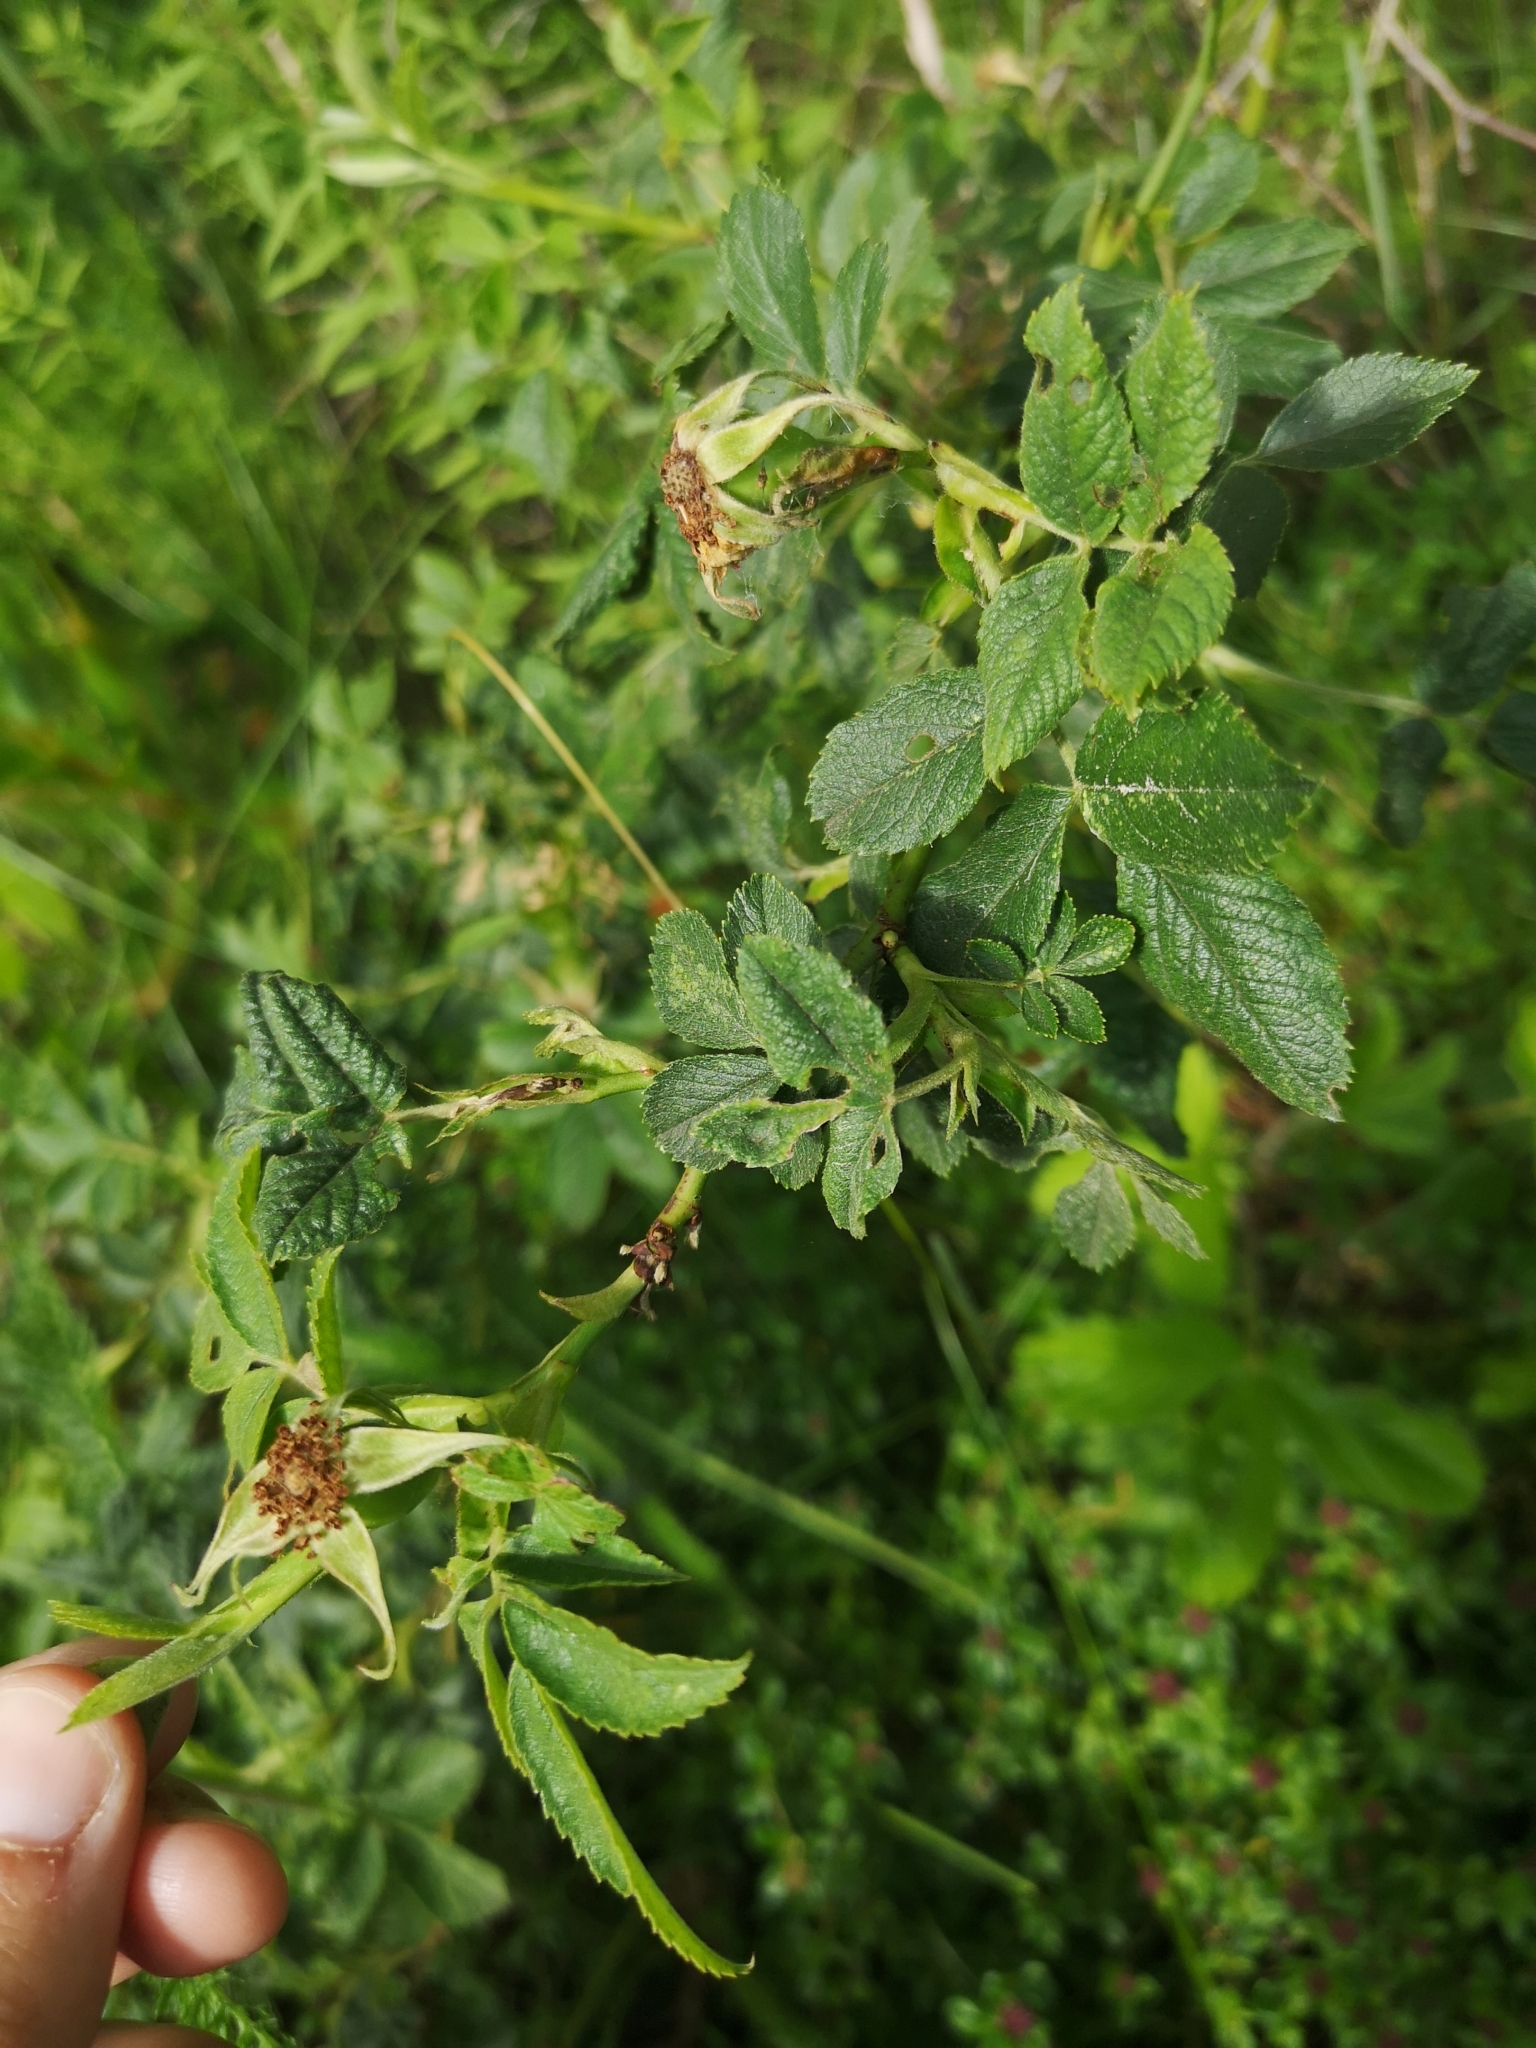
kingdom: Plantae
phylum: Tracheophyta
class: Magnoliopsida
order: Rosales
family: Rosaceae
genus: Rosa
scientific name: Rosa subcollina
